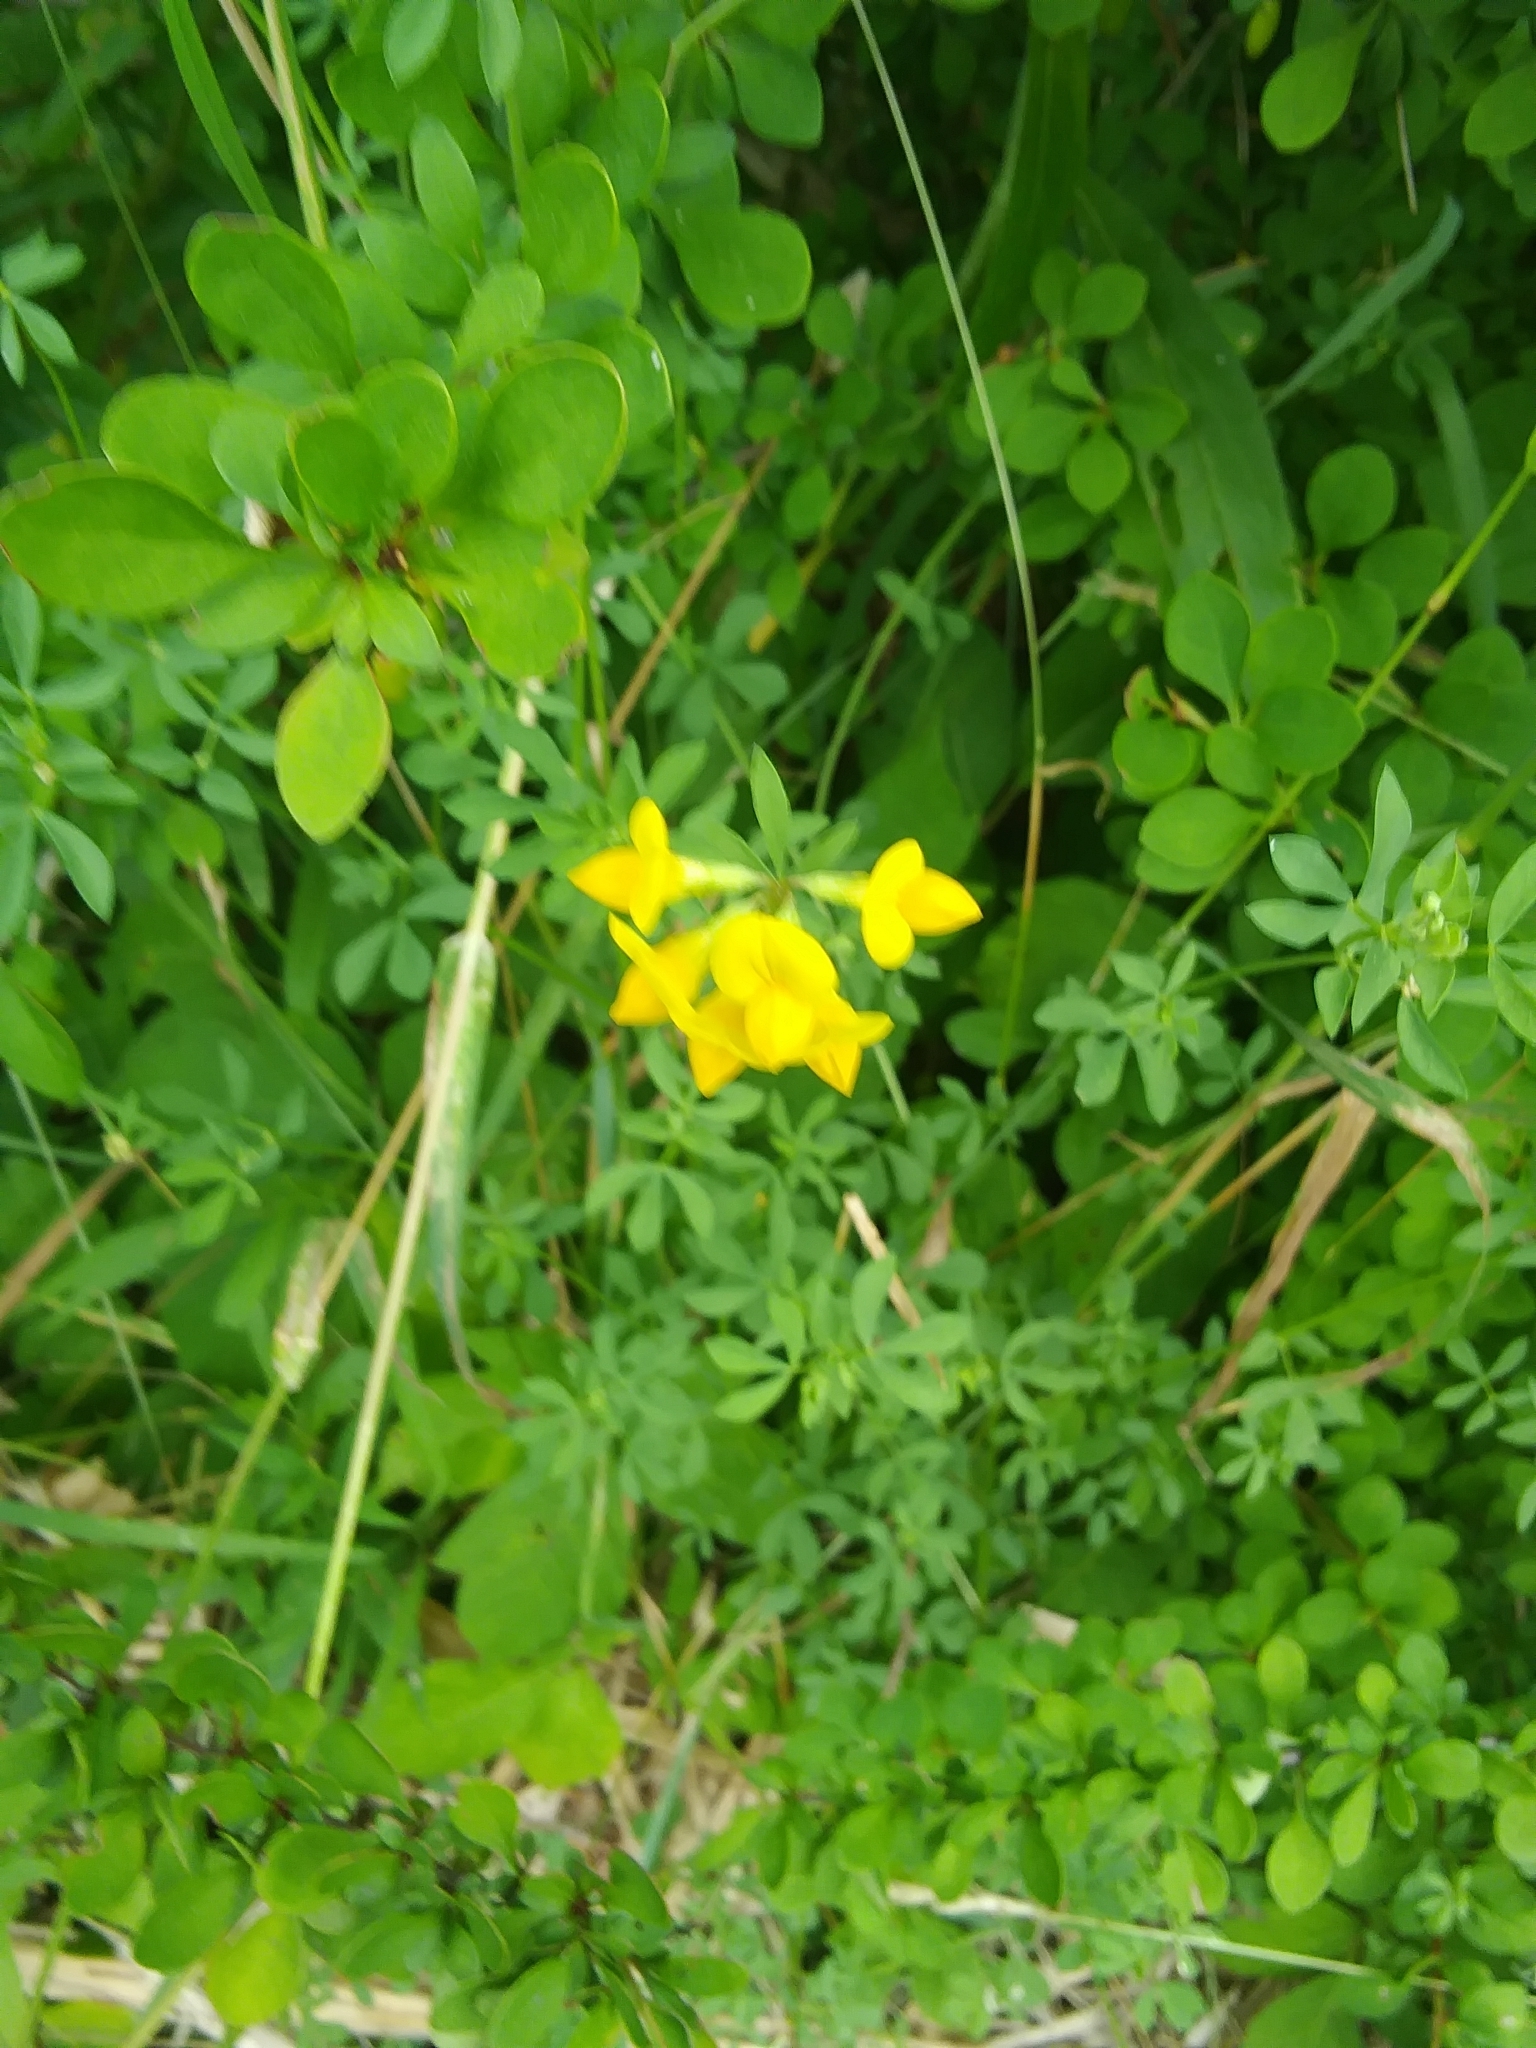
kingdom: Plantae
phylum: Tracheophyta
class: Magnoliopsida
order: Fabales
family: Fabaceae
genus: Lotus
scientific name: Lotus corniculatus
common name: Common bird's-foot-trefoil
